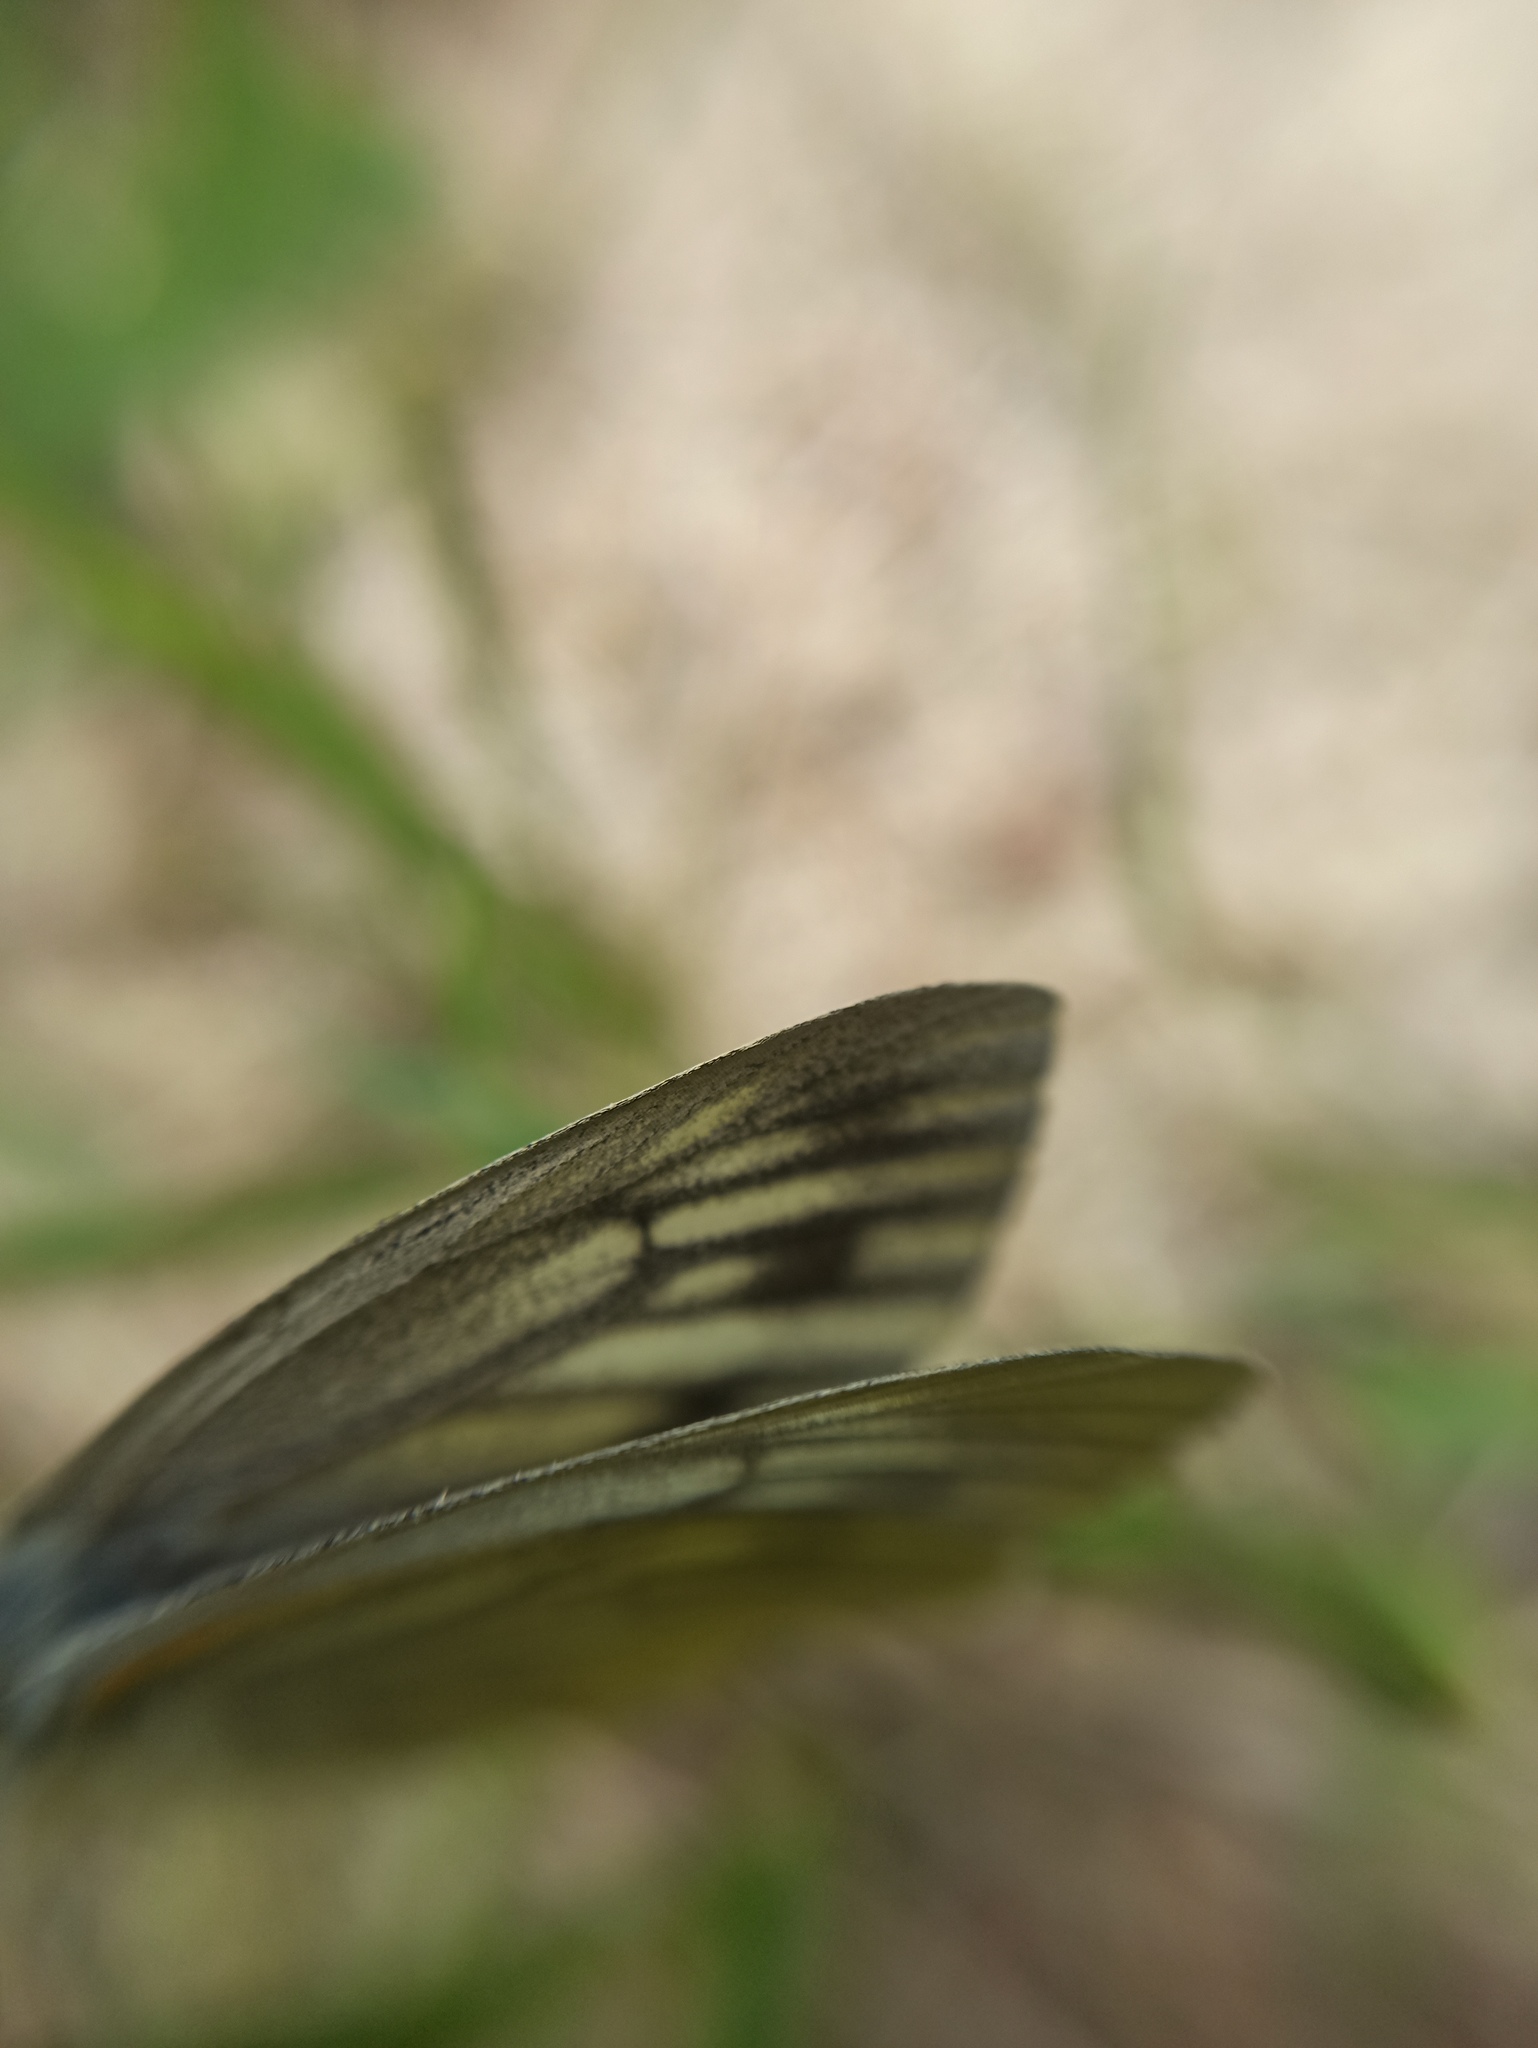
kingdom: Animalia
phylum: Arthropoda
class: Insecta
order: Lepidoptera
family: Pieridae
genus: Pieris
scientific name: Pieris bryoniae
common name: Mountain green-veined white
